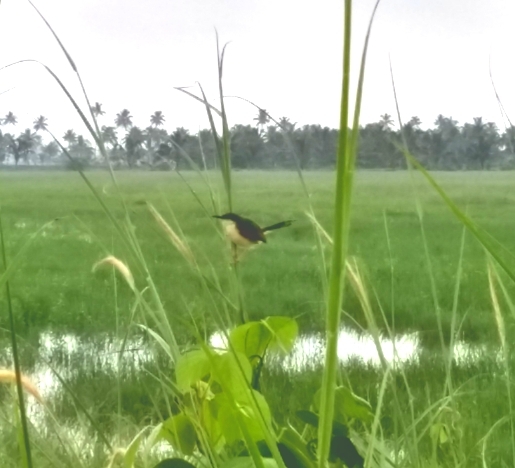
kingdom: Animalia
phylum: Chordata
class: Aves
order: Passeriformes
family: Cisticolidae
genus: Prinia
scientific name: Prinia socialis
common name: Ashy prinia
